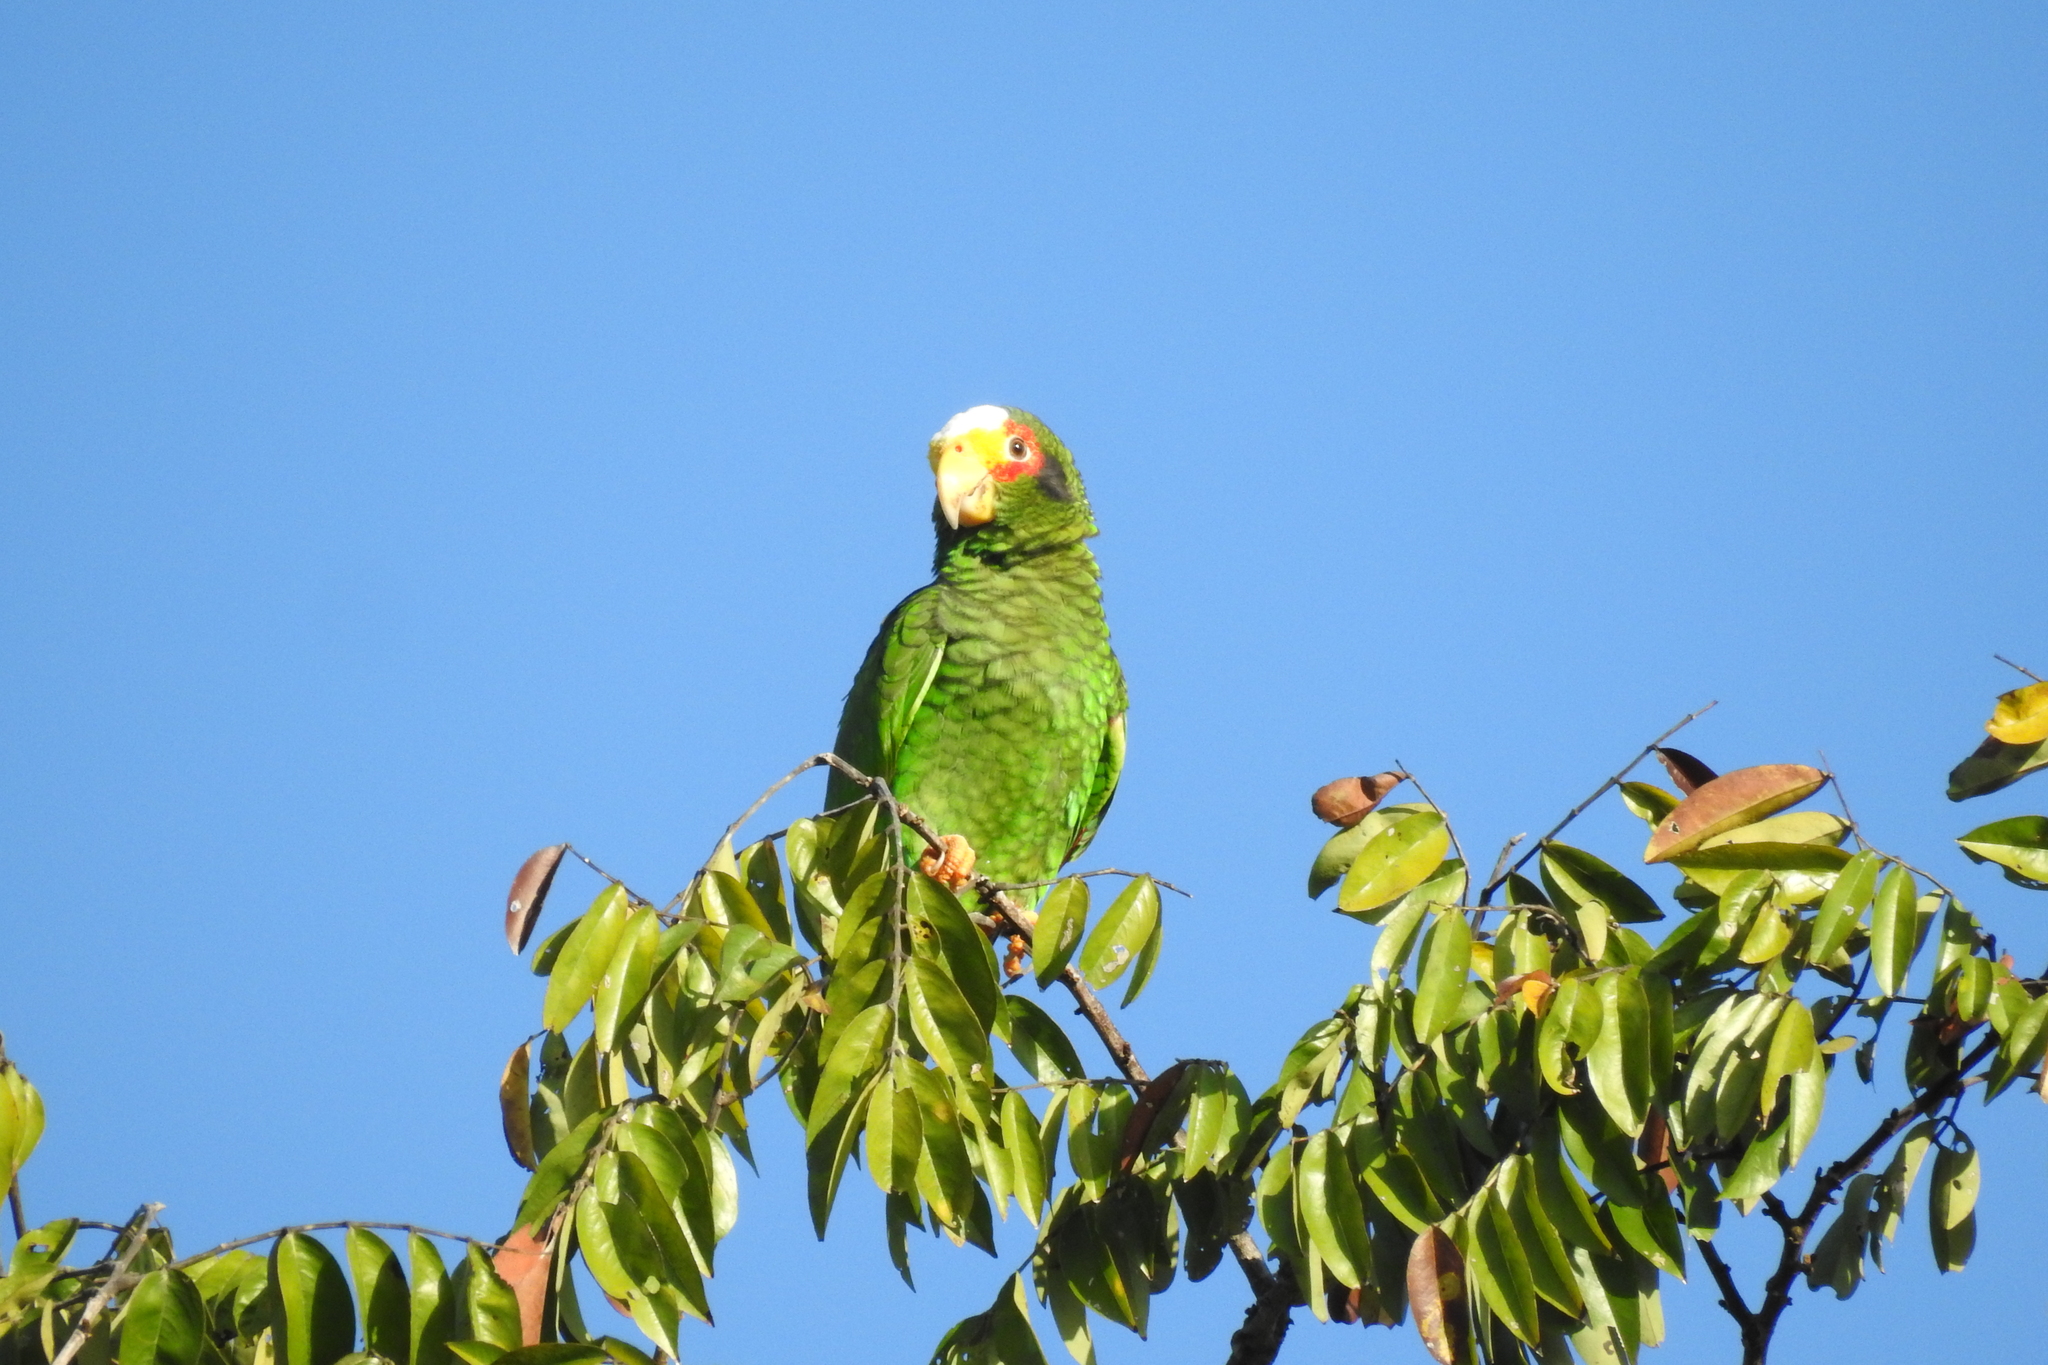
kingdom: Animalia
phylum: Chordata
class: Aves
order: Psittaciformes
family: Psittacidae
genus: Amazona
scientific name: Amazona xantholora
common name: Yucatan amazon
